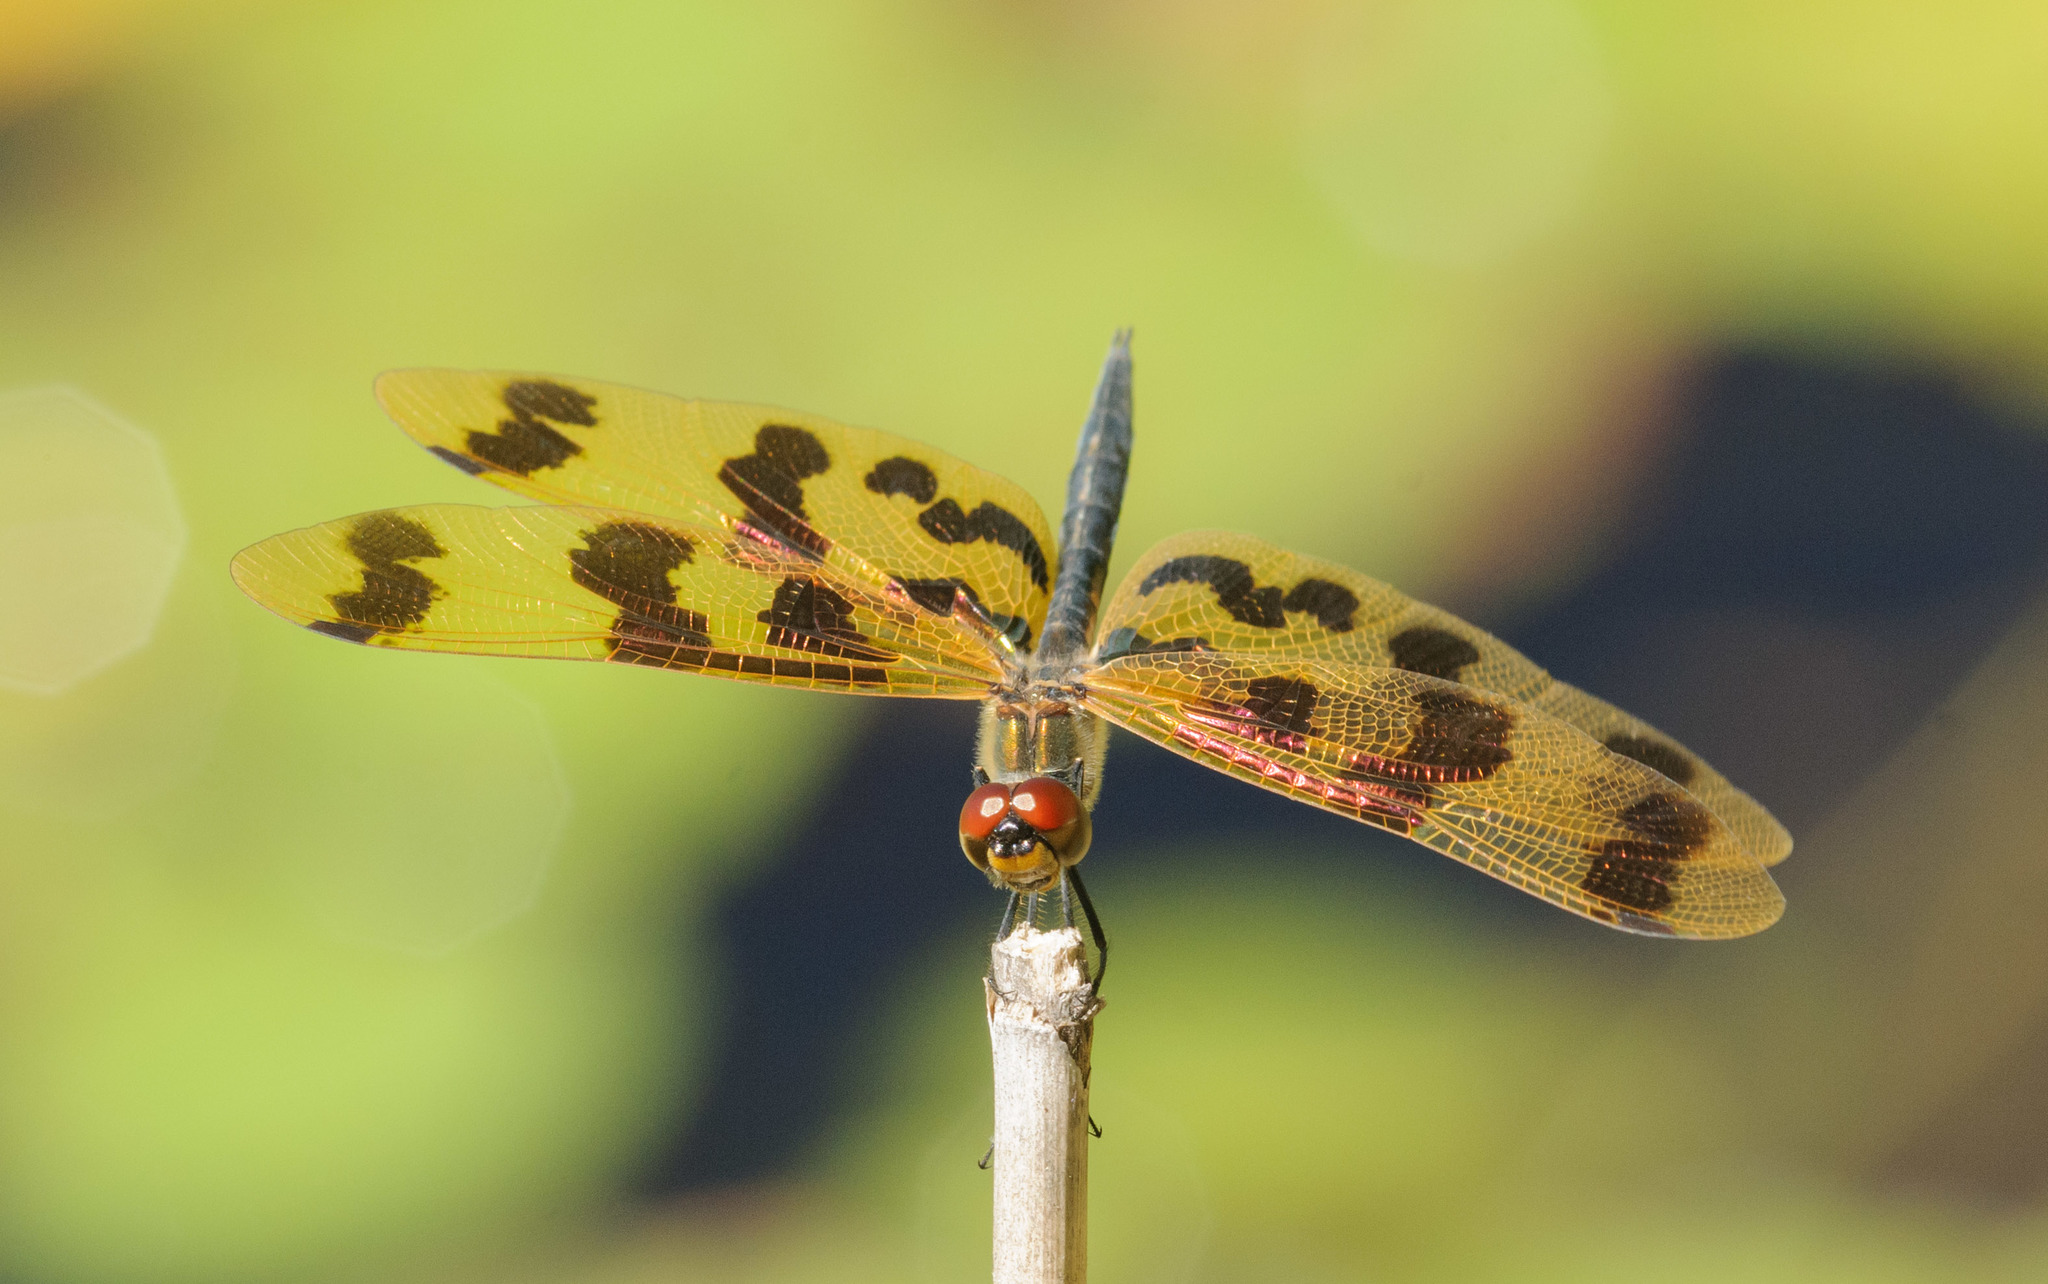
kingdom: Animalia
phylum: Arthropoda
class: Insecta
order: Odonata
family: Libellulidae
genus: Rhyothemis
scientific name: Rhyothemis graphiptera
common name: Graphic flutterer
